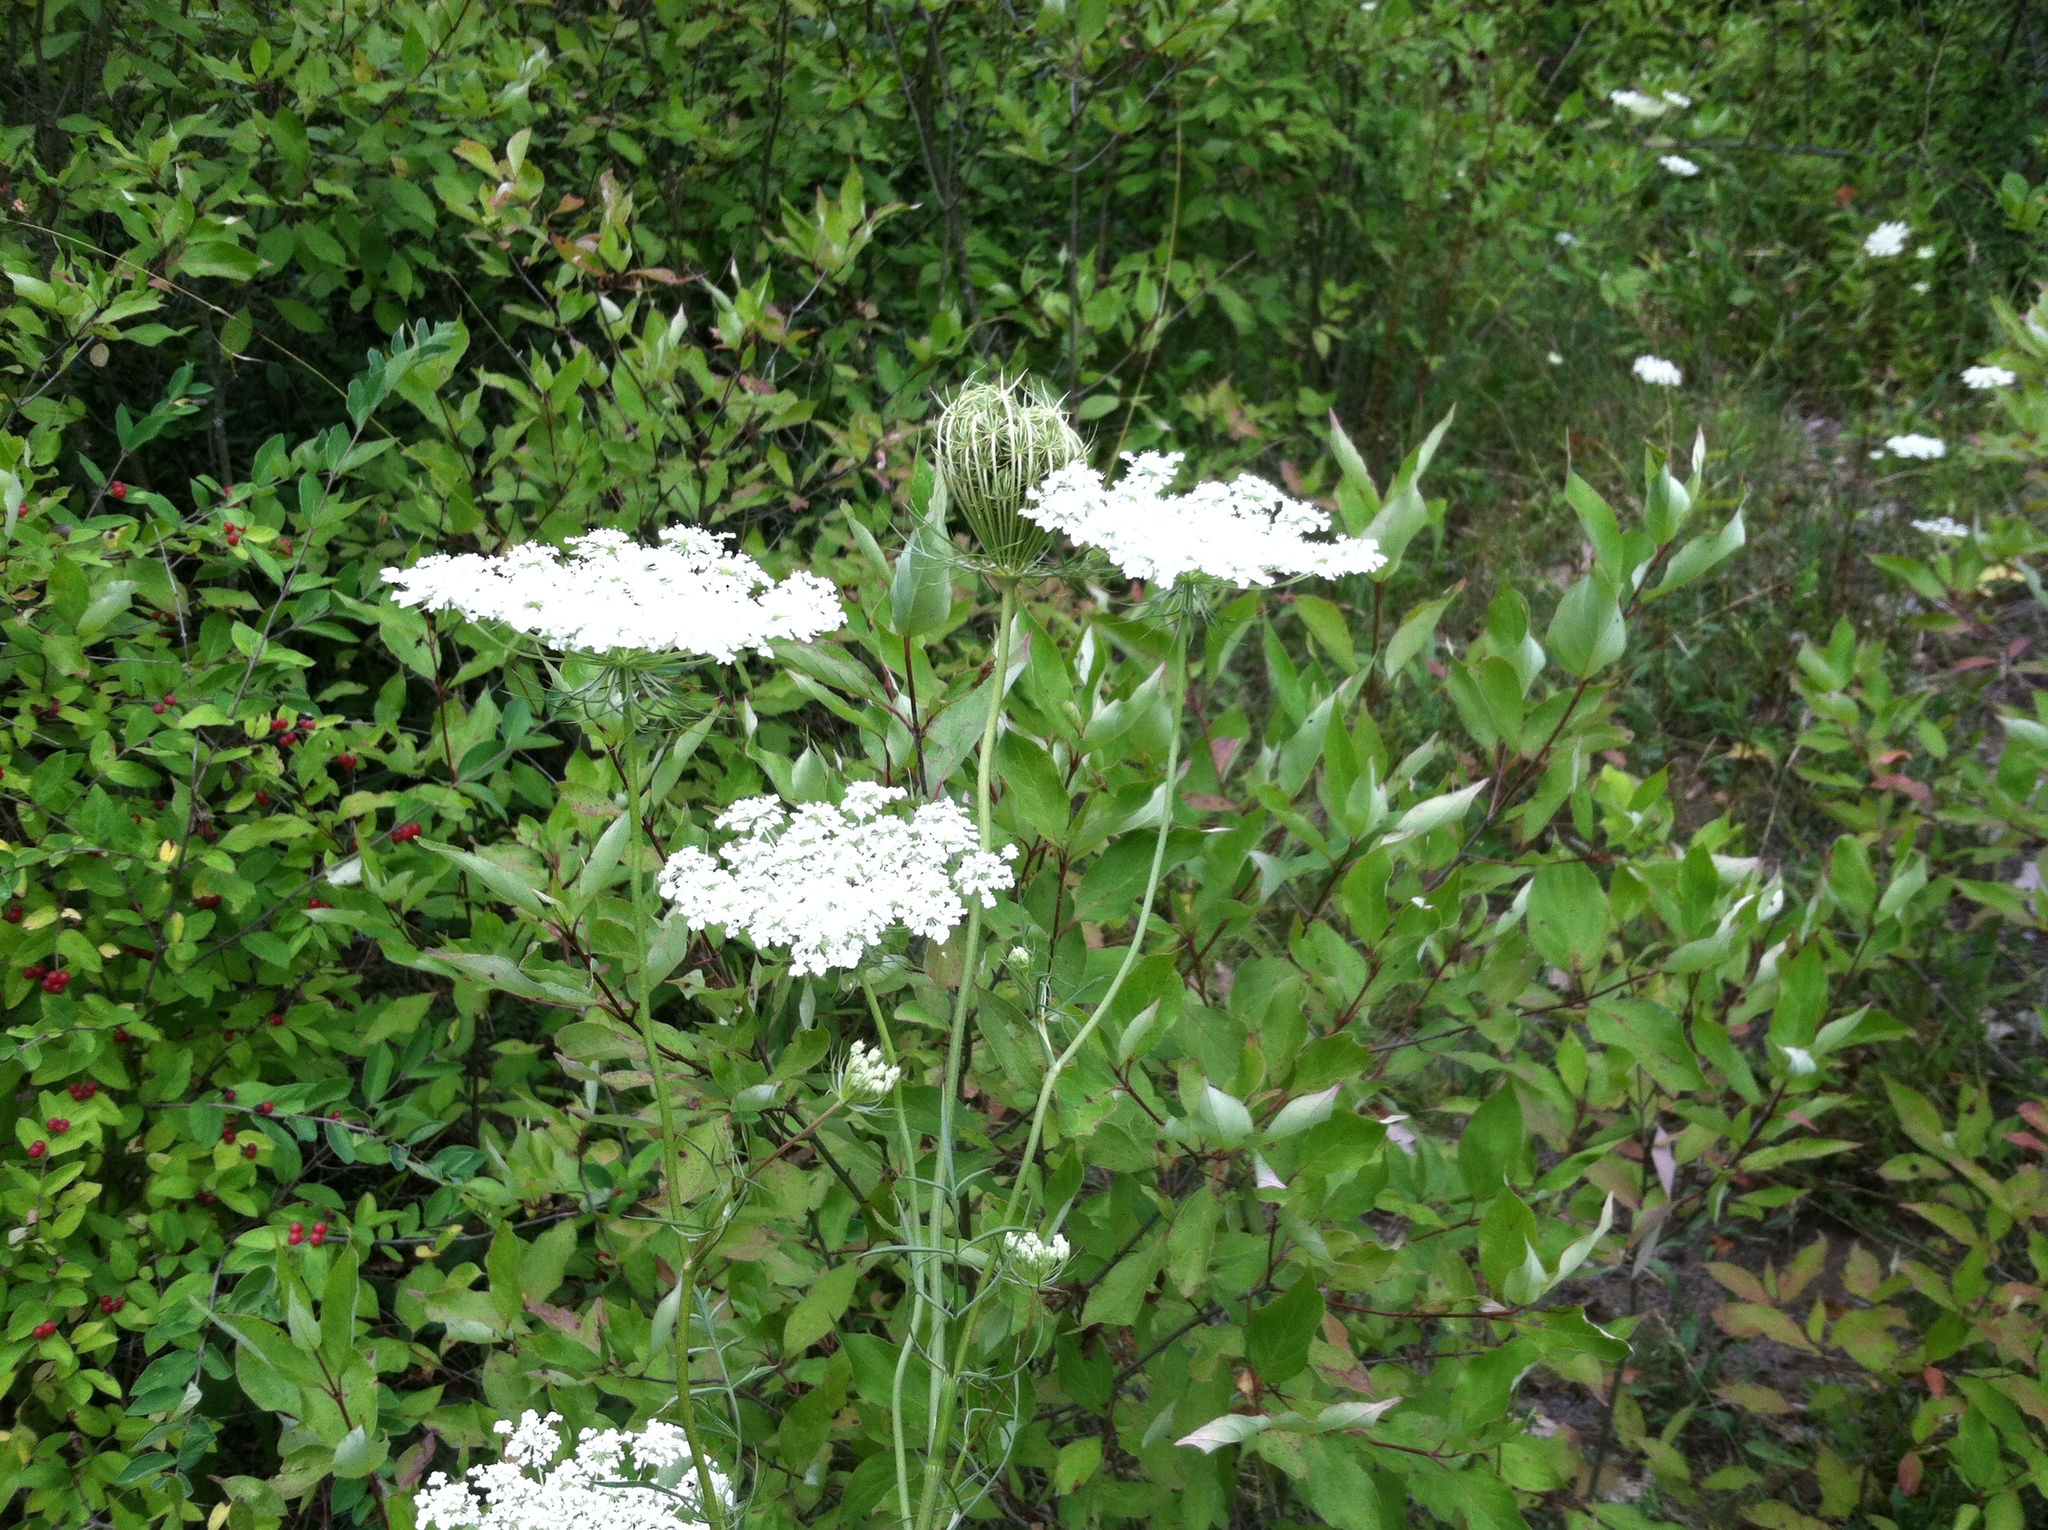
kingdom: Plantae
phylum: Tracheophyta
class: Magnoliopsida
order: Apiales
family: Apiaceae
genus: Daucus
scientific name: Daucus carota
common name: Wild carrot
